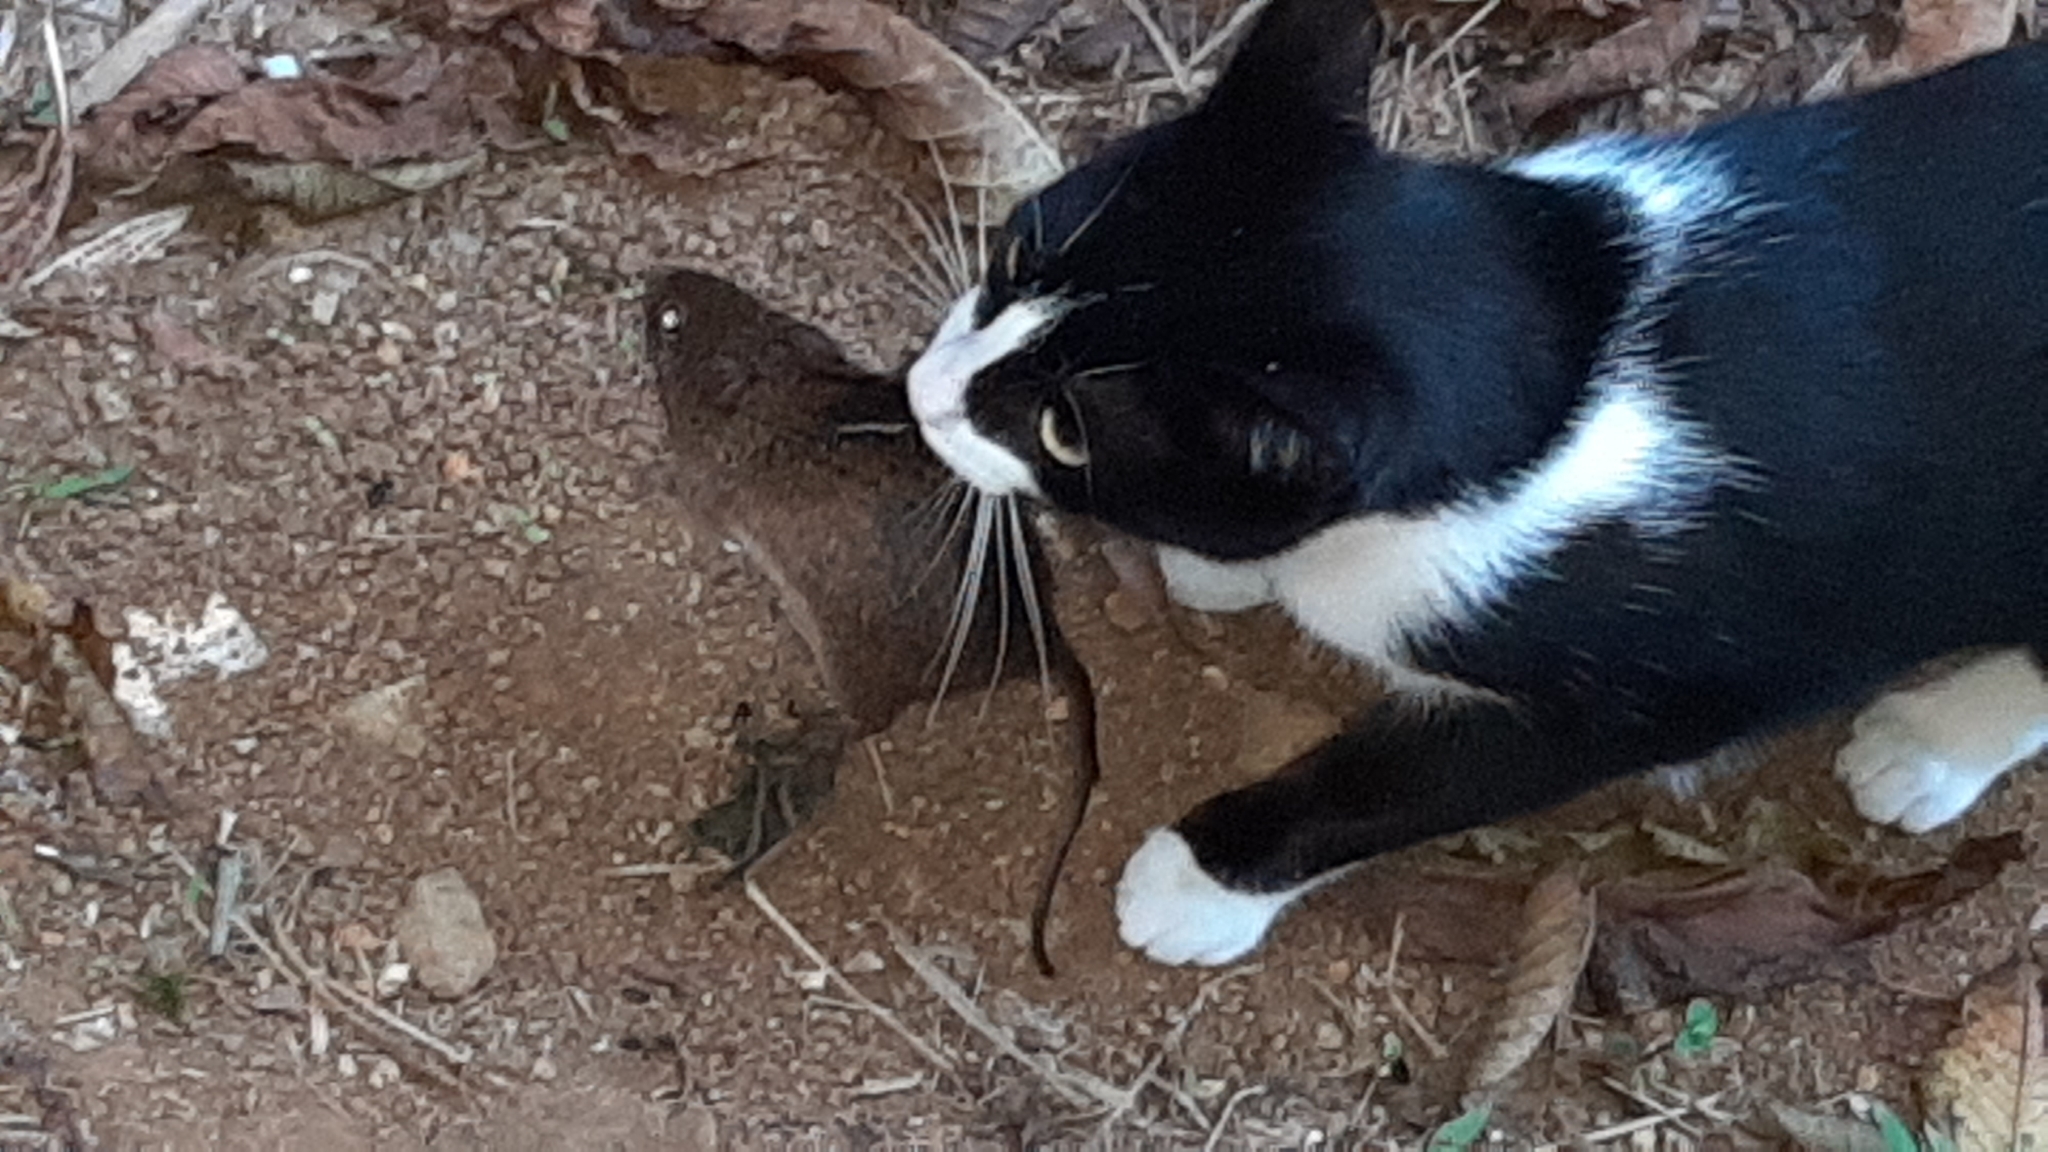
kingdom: Animalia
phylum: Chordata
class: Mammalia
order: Carnivora
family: Felidae
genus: Felis
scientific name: Felis catus
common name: Domestic cat
